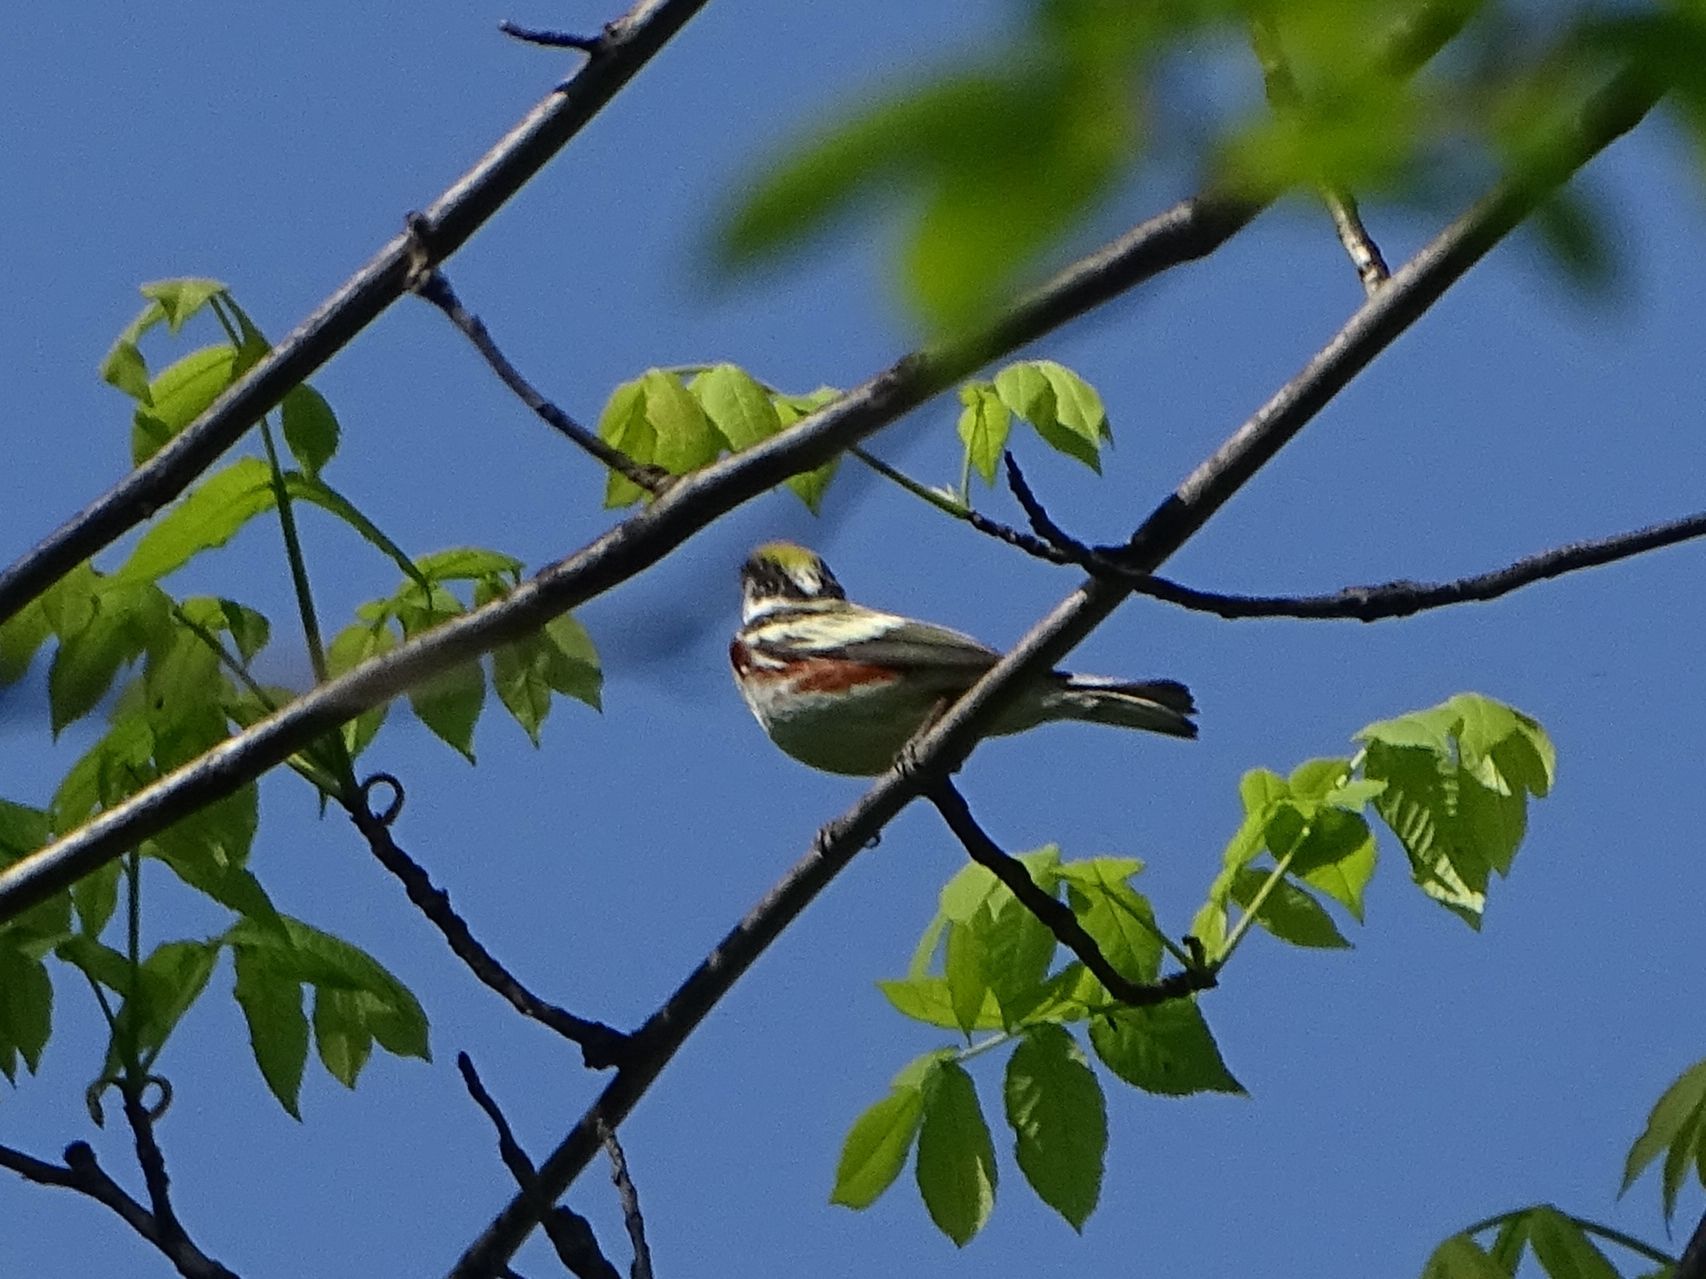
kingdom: Animalia
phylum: Chordata
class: Aves
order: Passeriformes
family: Parulidae
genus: Setophaga
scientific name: Setophaga pensylvanica
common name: Chestnut-sided warbler
